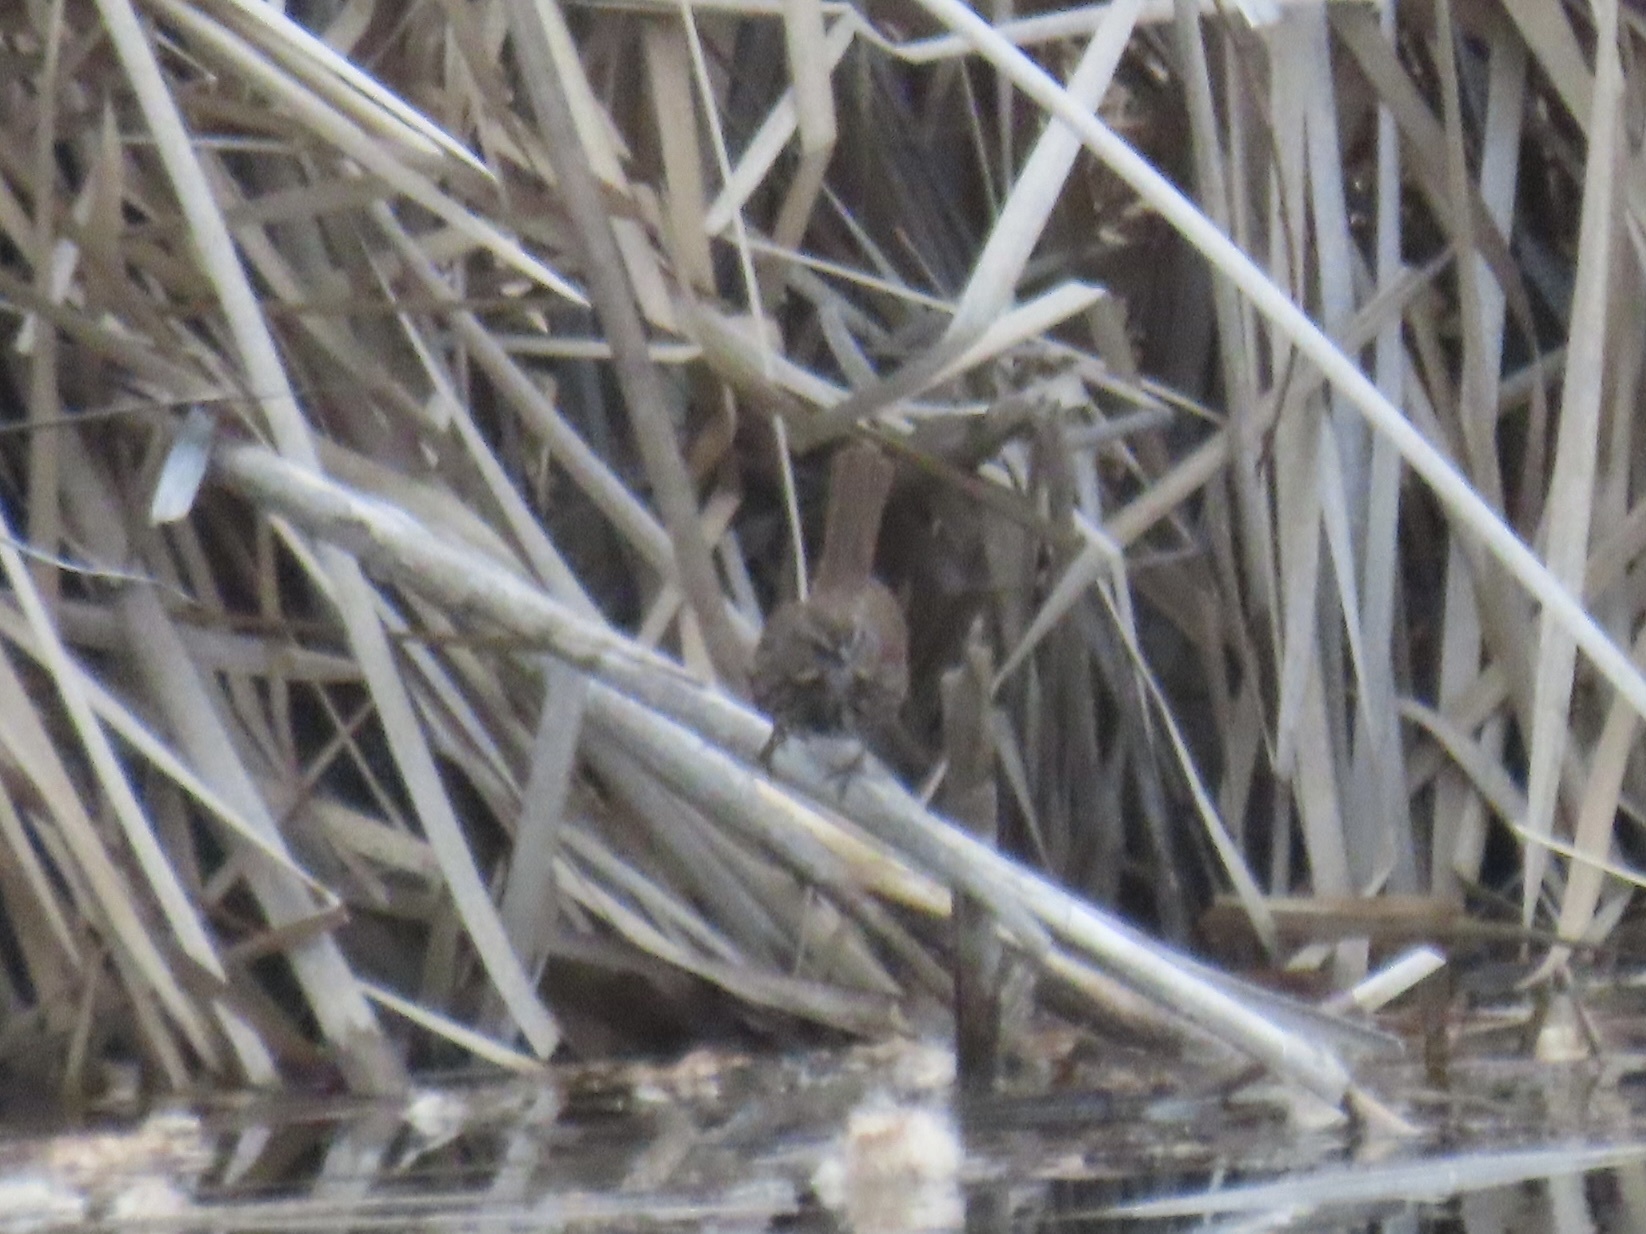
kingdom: Animalia
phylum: Chordata
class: Aves
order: Passeriformes
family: Passerellidae
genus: Melospiza
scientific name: Melospiza melodia
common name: Song sparrow
